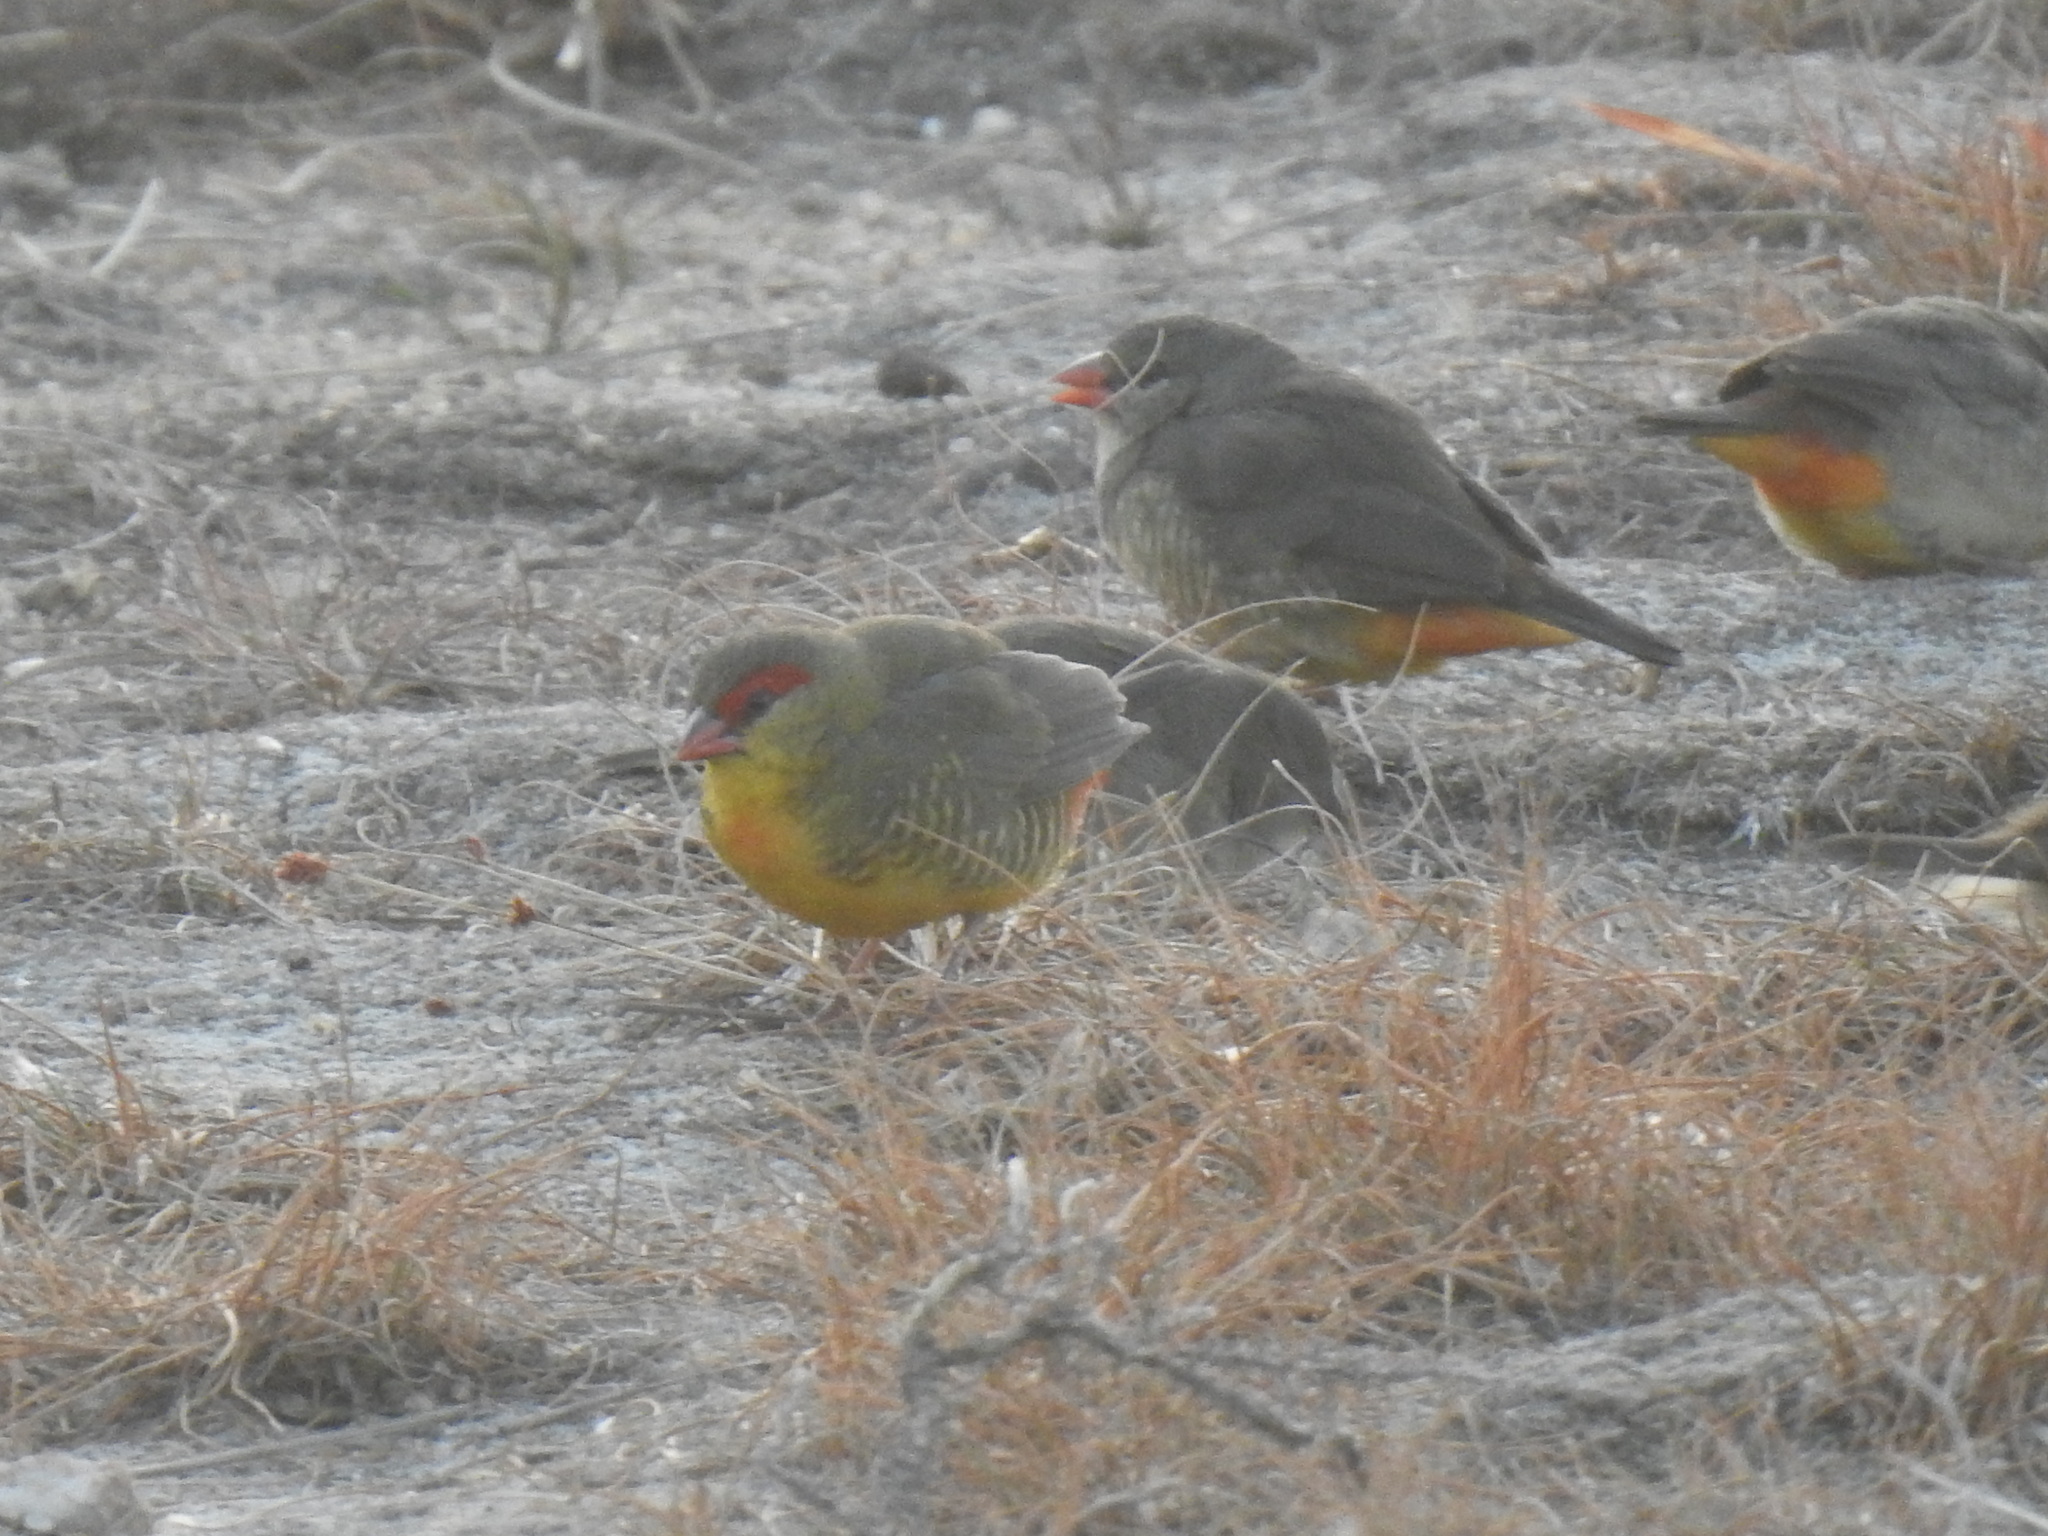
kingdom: Animalia
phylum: Chordata
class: Aves
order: Passeriformes
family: Estrildidae
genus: Amandava
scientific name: Amandava subflava
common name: Orange-breasted waxbill
